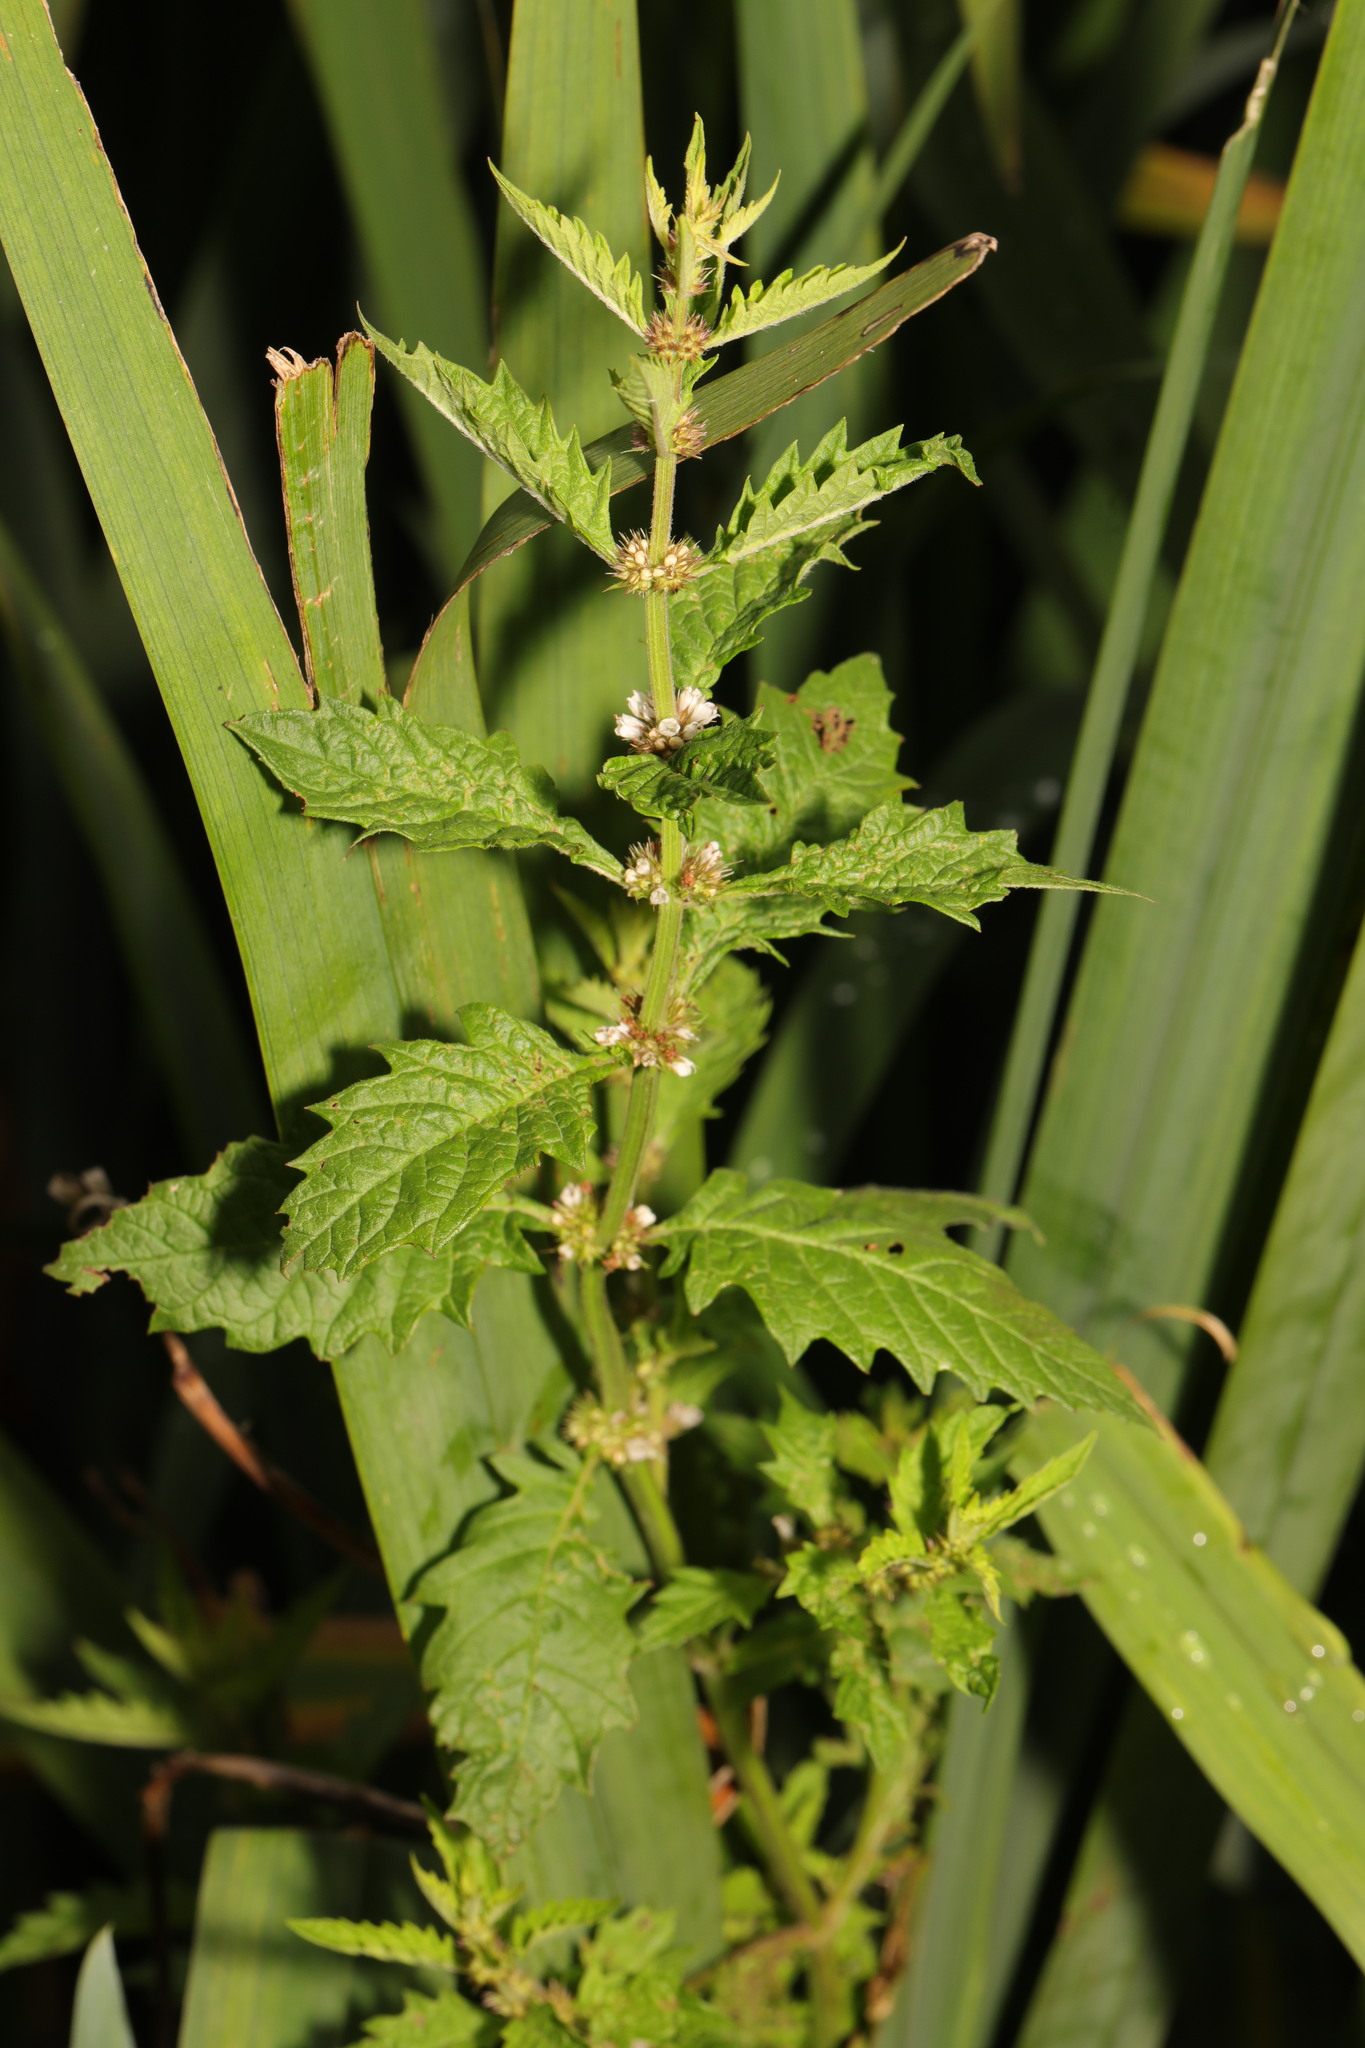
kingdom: Plantae
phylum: Tracheophyta
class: Magnoliopsida
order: Lamiales
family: Lamiaceae
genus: Lycopus
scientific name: Lycopus europaeus
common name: European bugleweed
